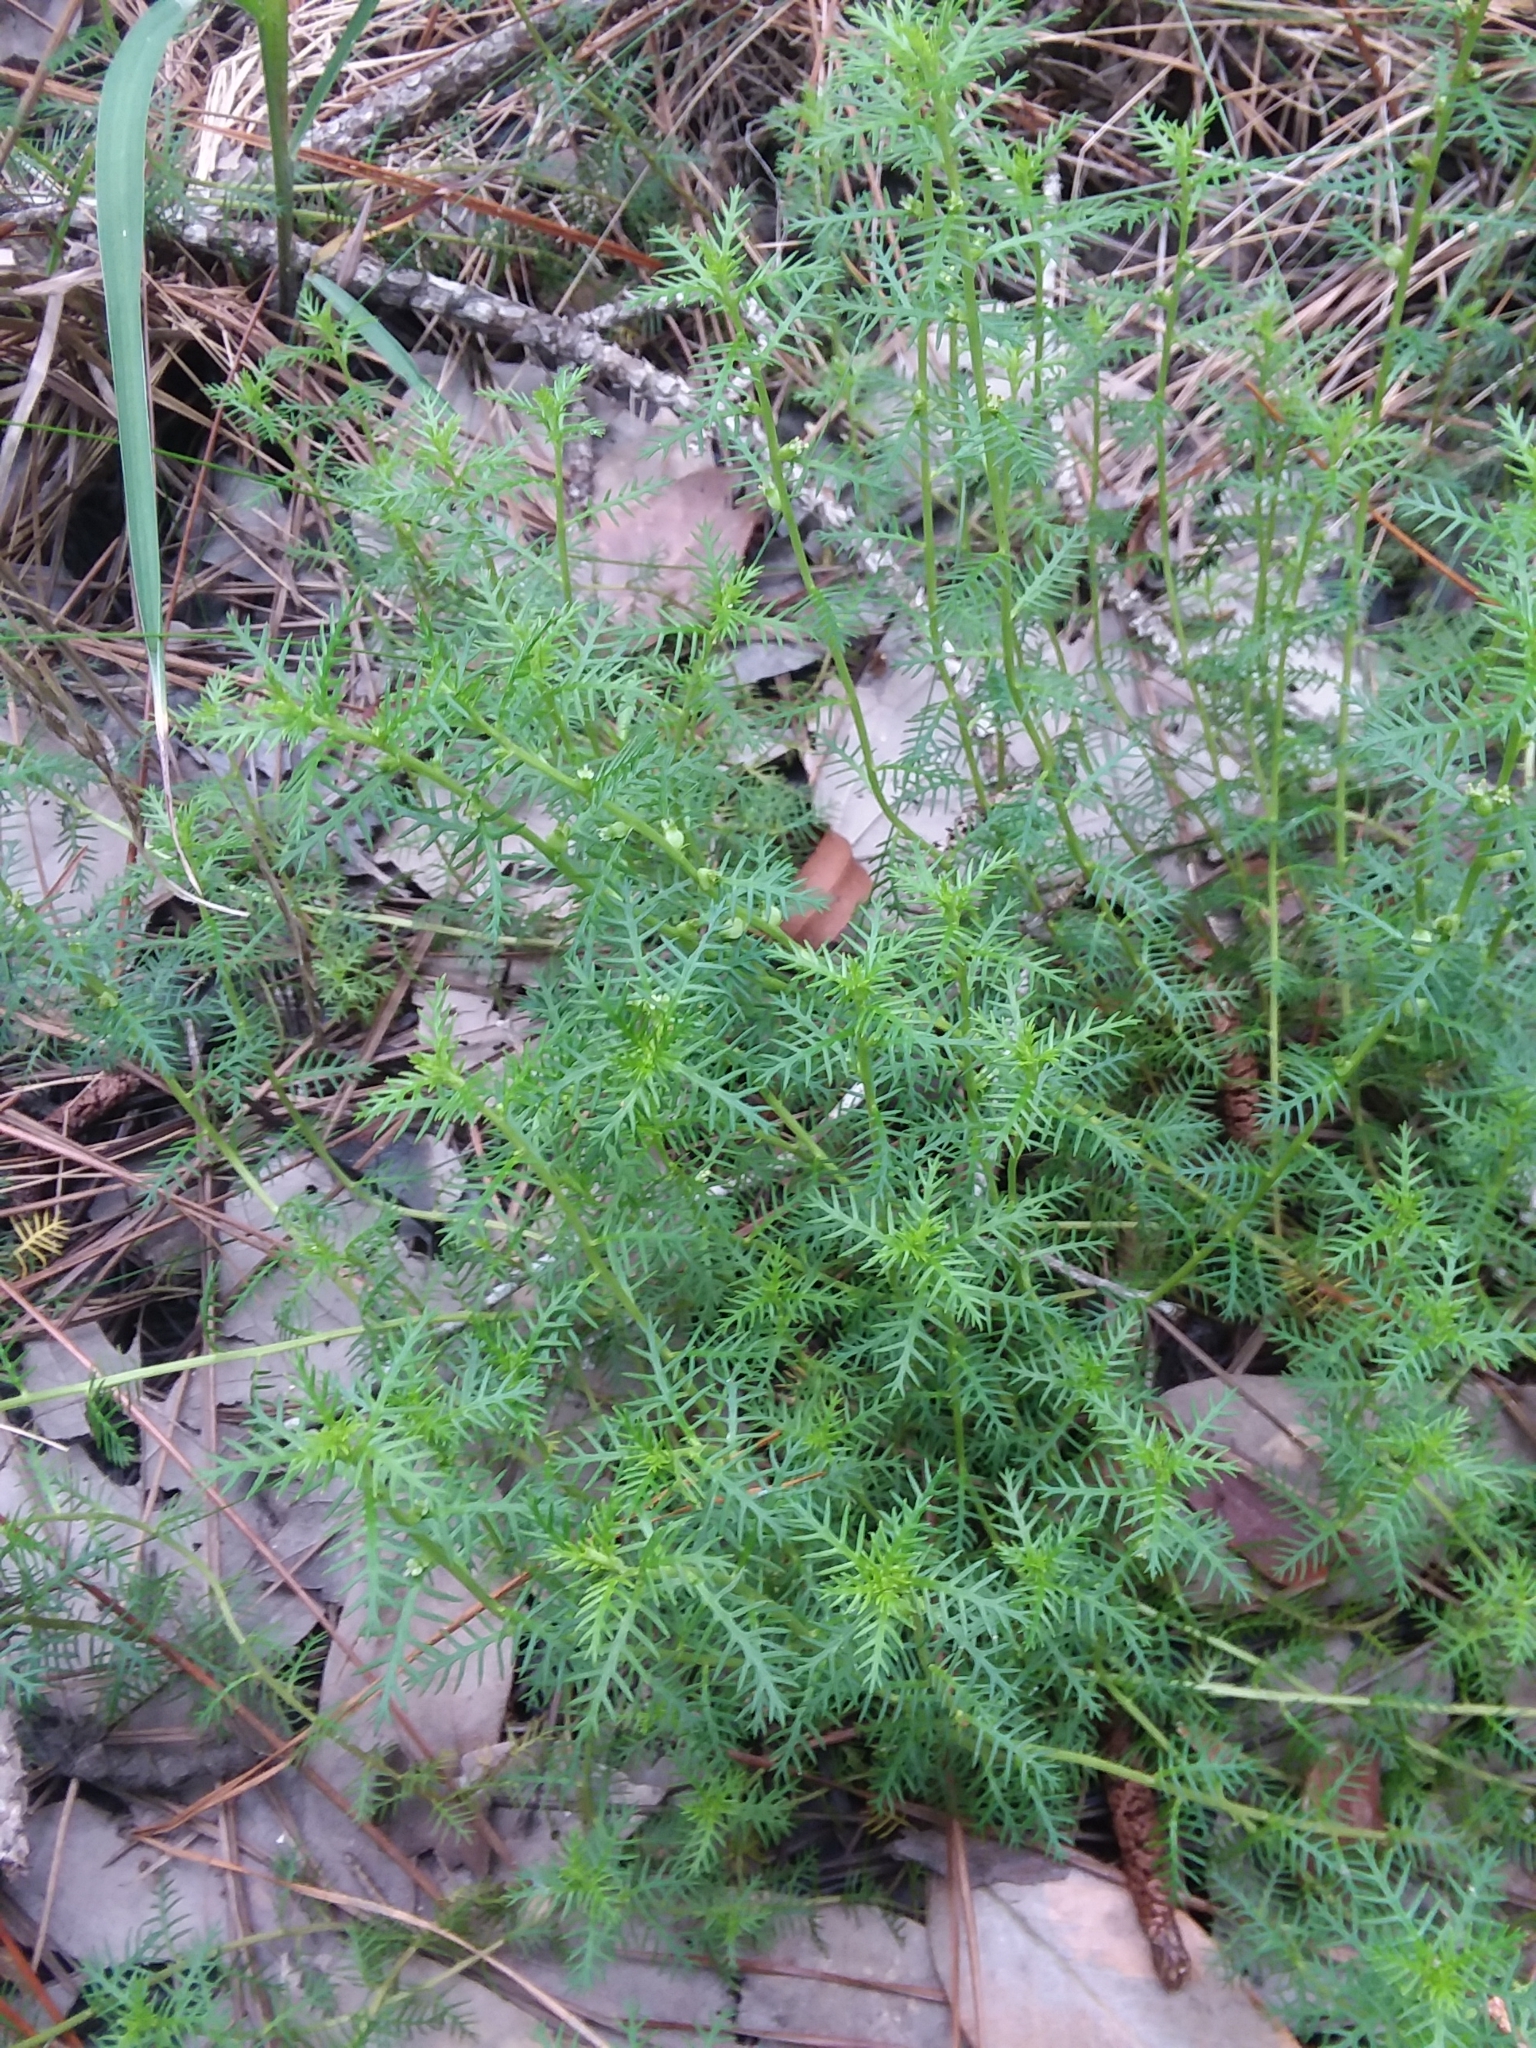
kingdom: Plantae
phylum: Tracheophyta
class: Magnoliopsida
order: Saxifragales
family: Haloragaceae
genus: Proserpinaca
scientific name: Proserpinaca pectinata
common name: Comb-leaved mermaidweed
